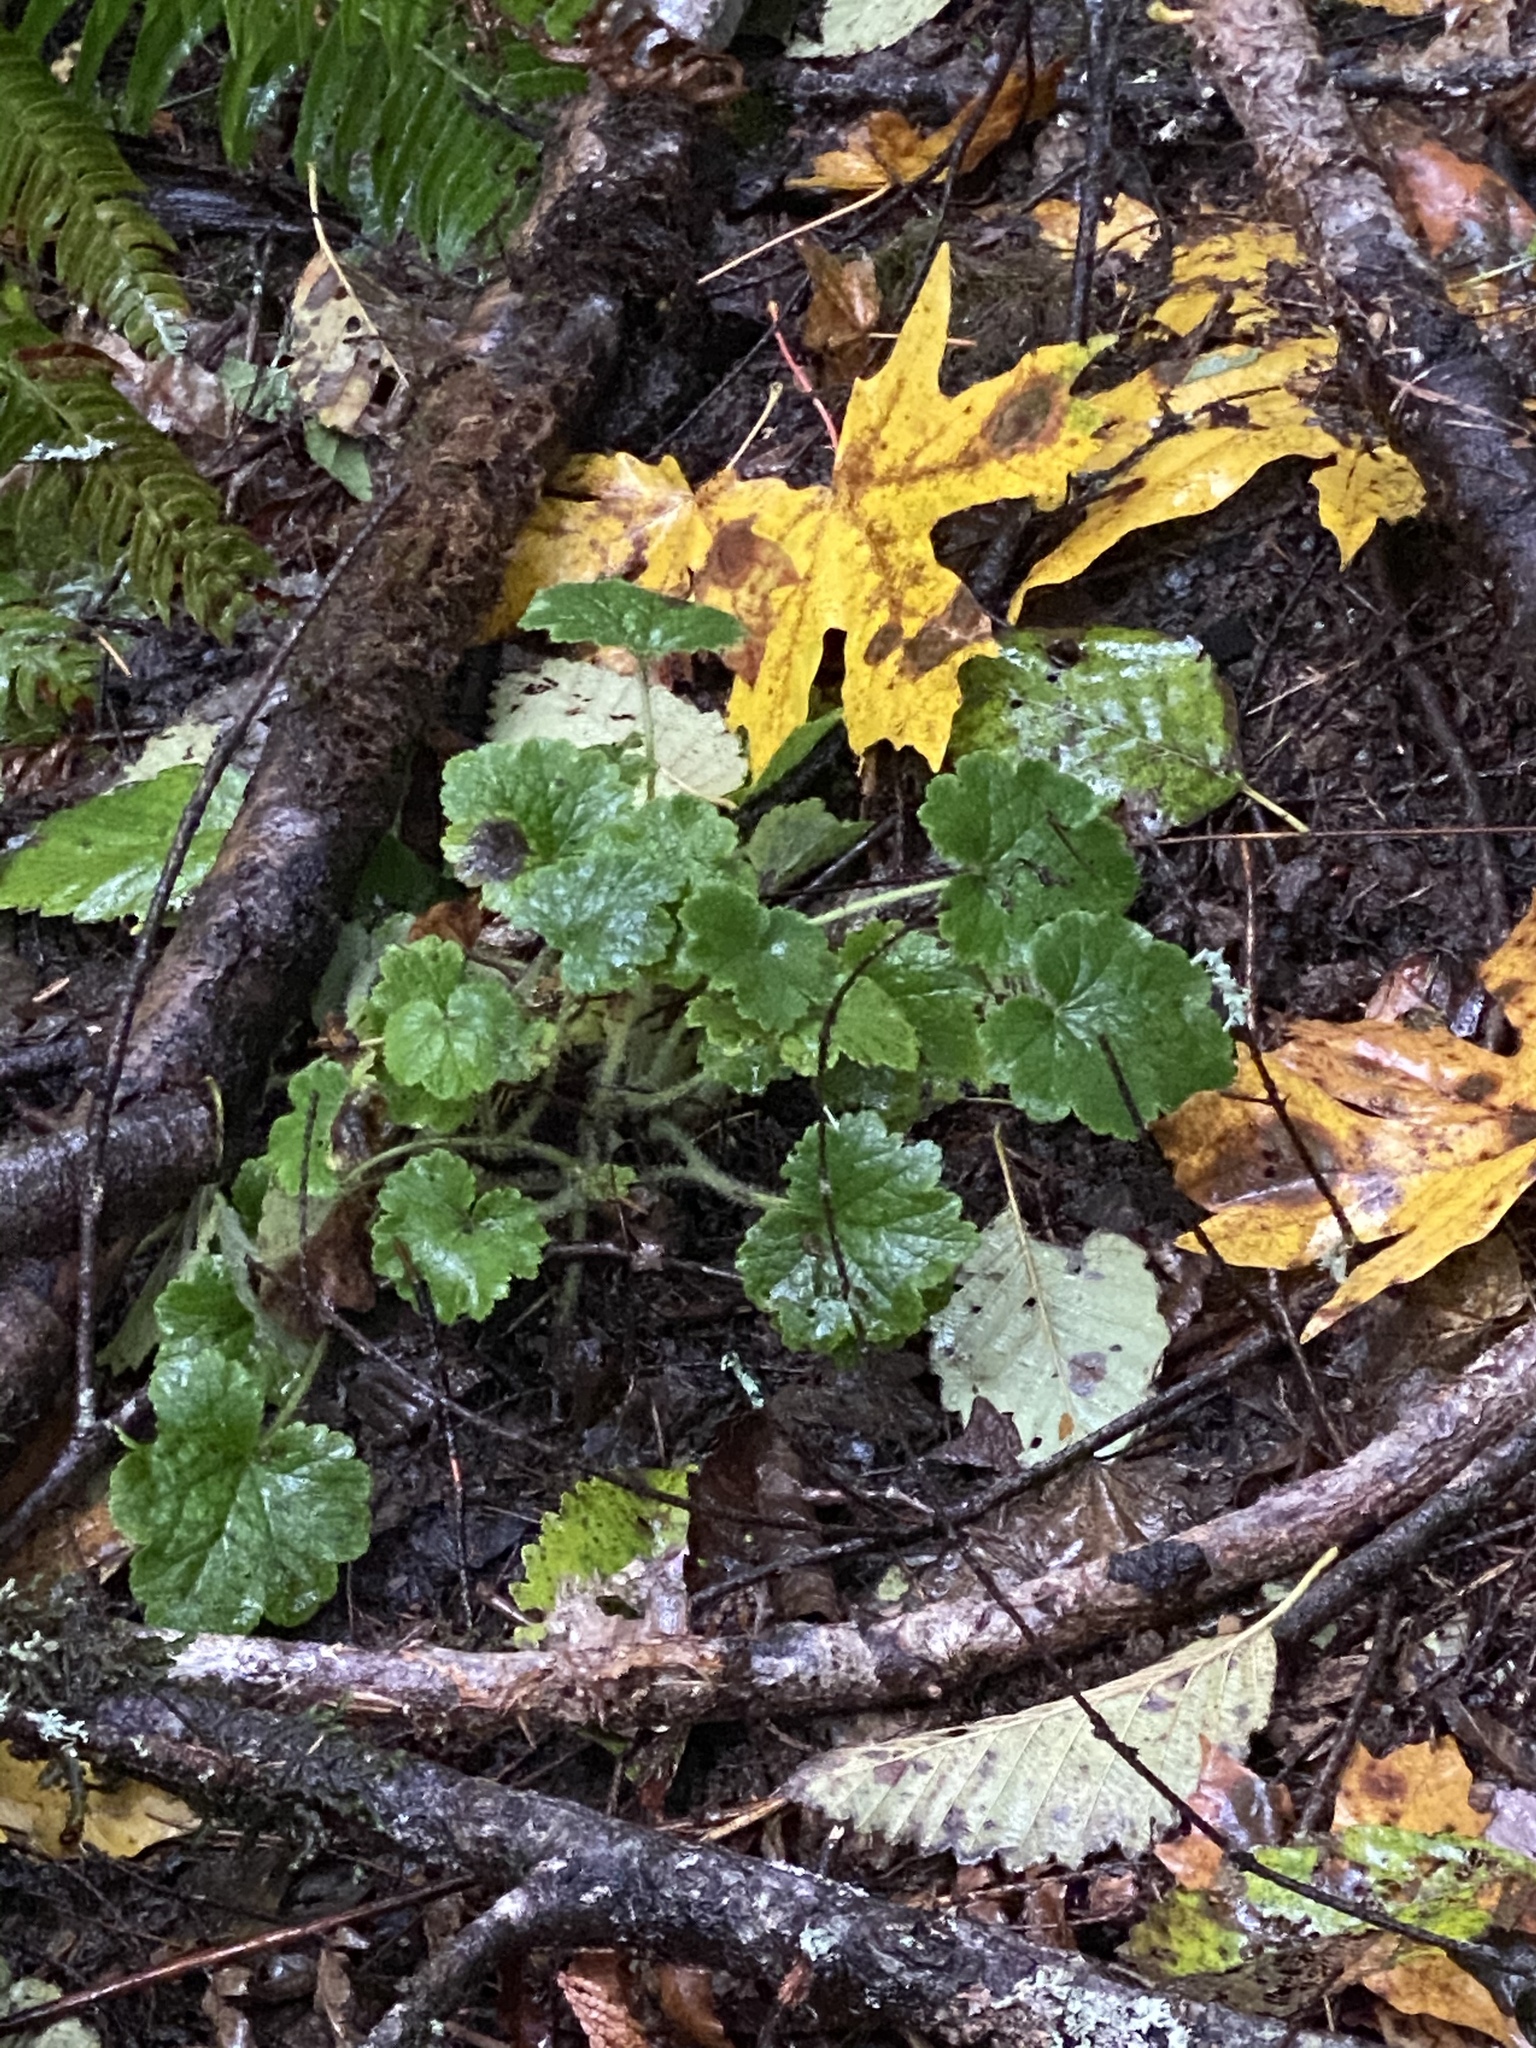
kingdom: Plantae
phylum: Tracheophyta
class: Magnoliopsida
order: Saxifragales
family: Saxifragaceae
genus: Tellima
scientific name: Tellima grandiflora
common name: Fringecups
